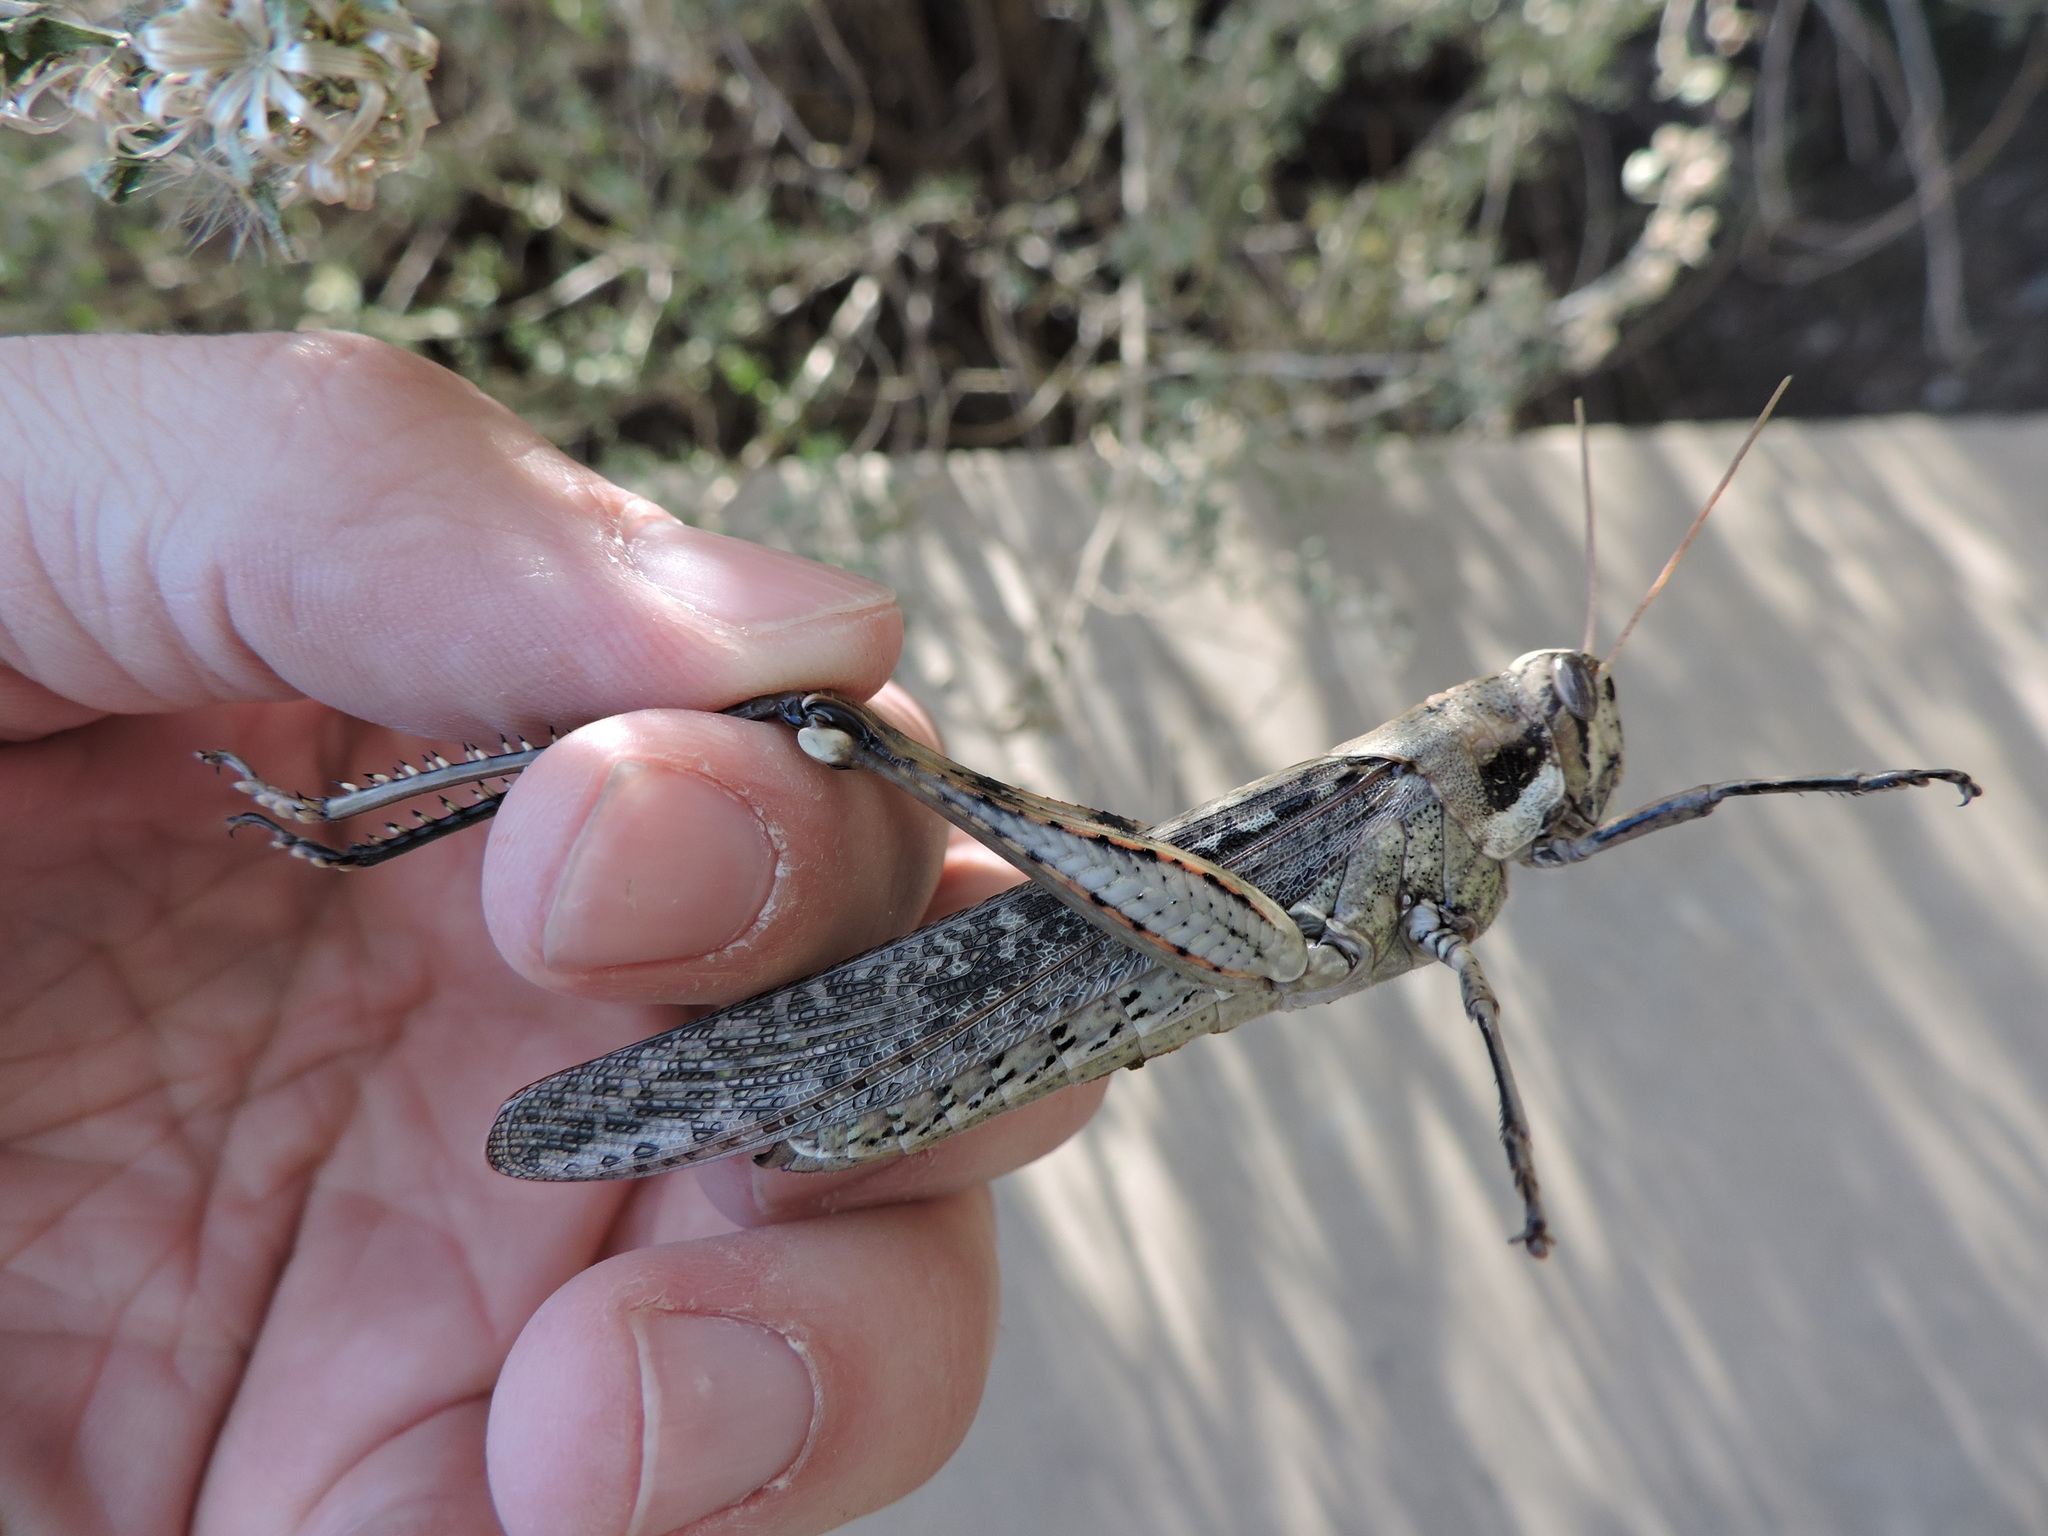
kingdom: Animalia
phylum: Arthropoda
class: Insecta
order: Orthoptera
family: Acrididae
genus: Schistocerca
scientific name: Schistocerca nitens
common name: Vagrant grasshopper
